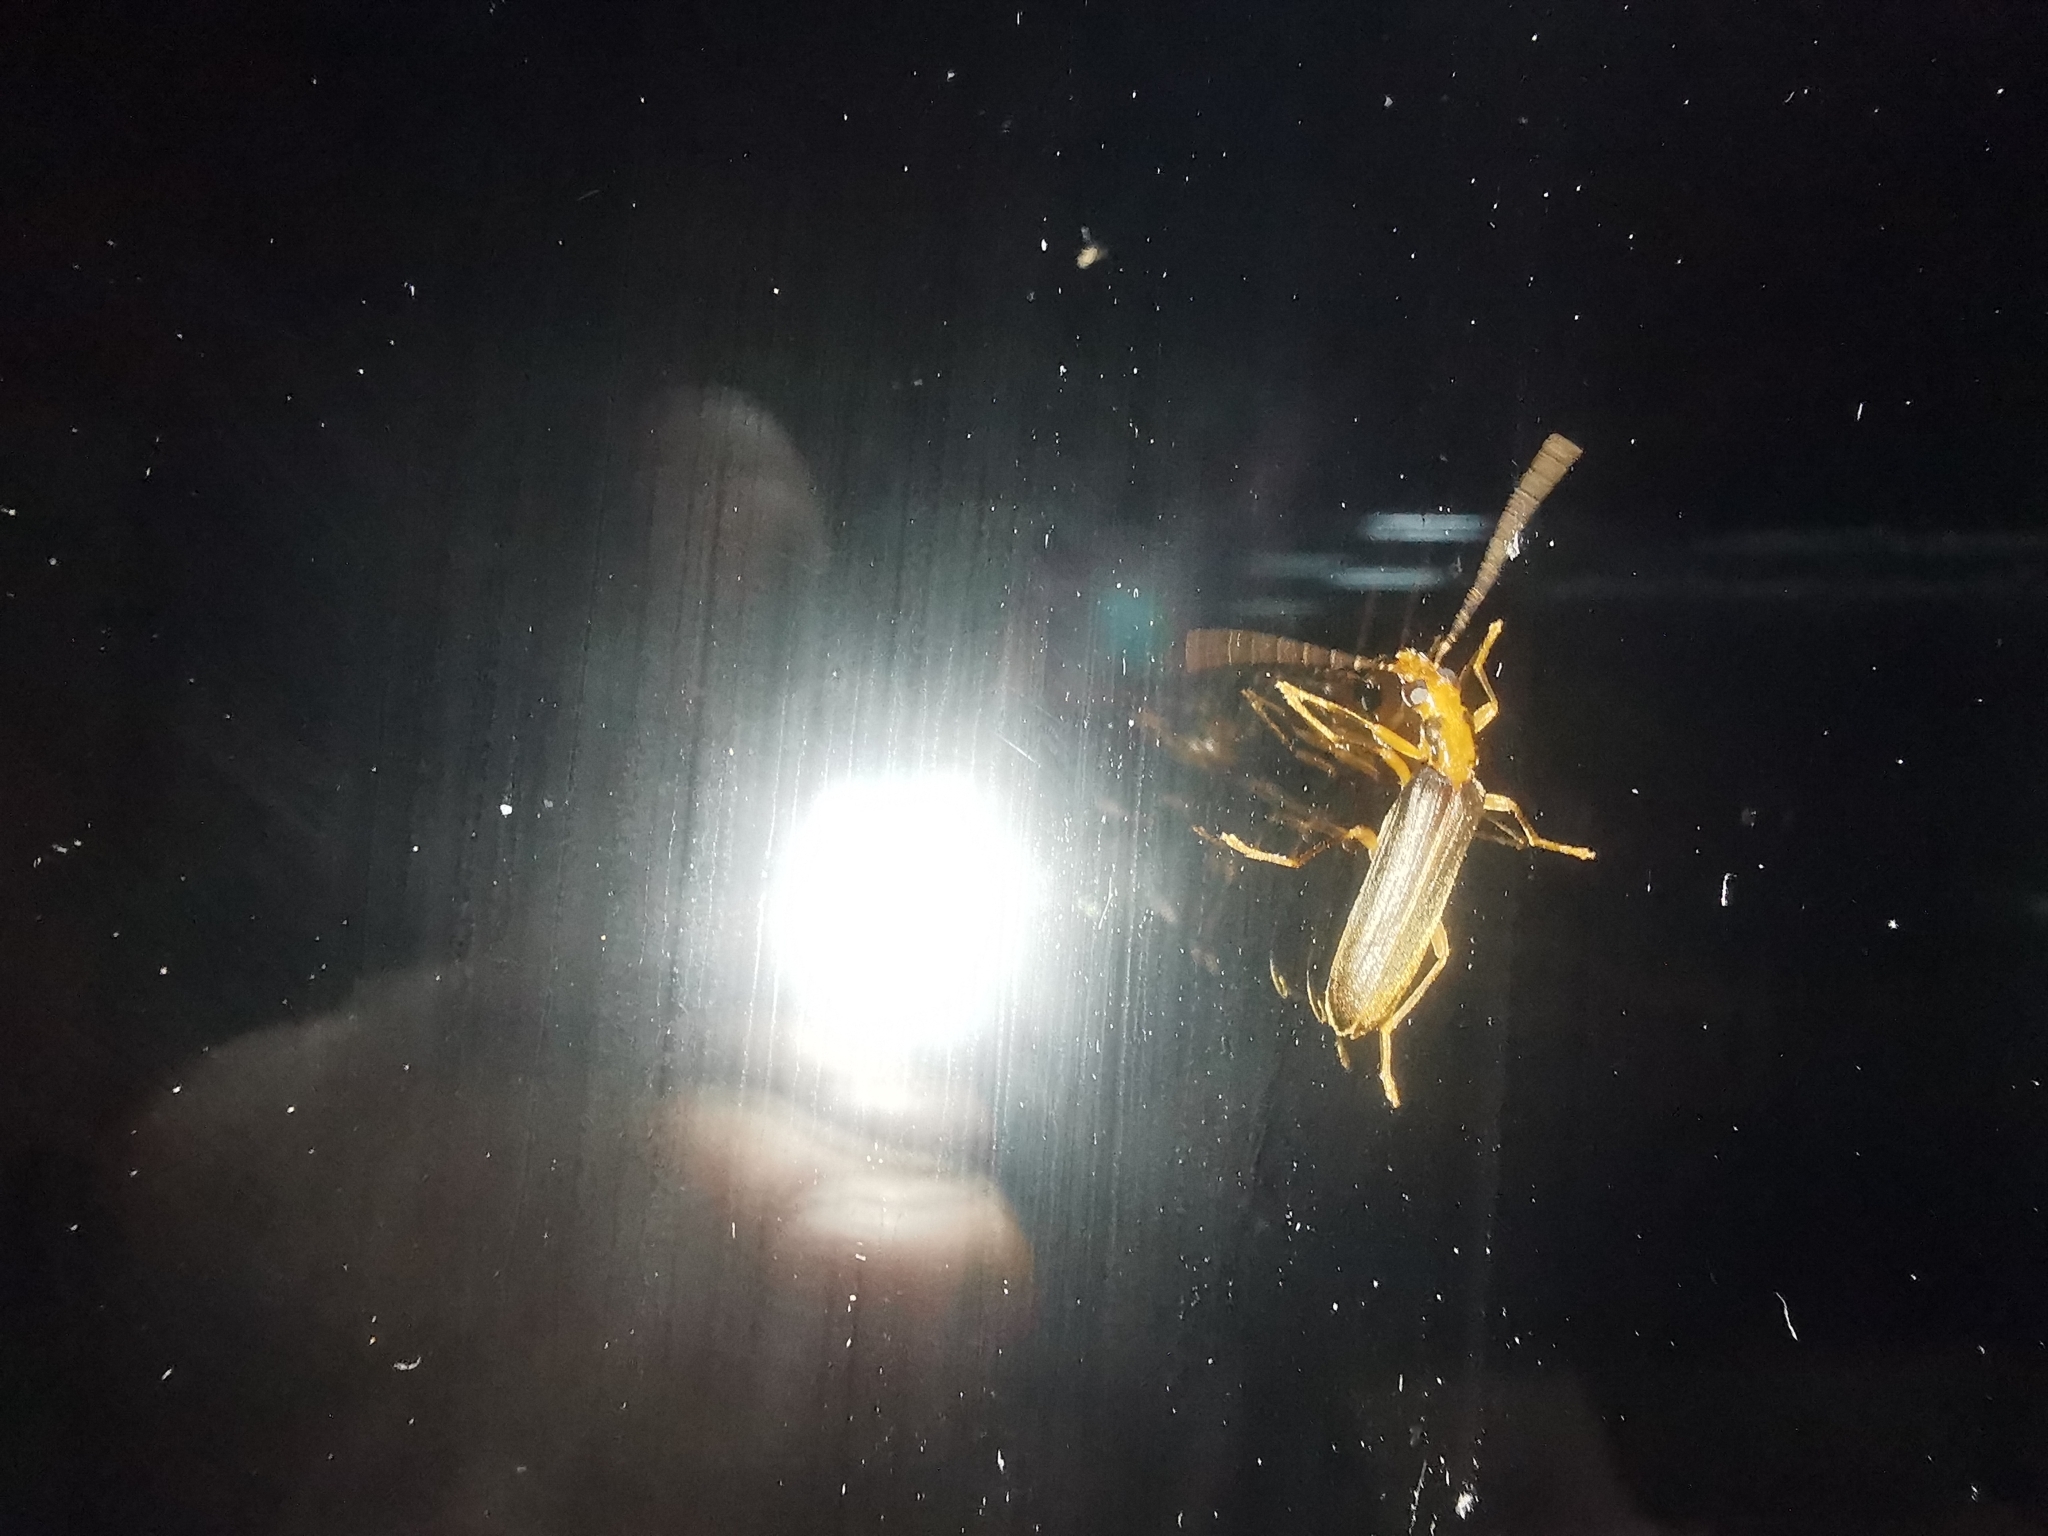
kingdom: Animalia
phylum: Arthropoda
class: Insecta
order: Coleoptera
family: Oedemeridae
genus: Nacerdes
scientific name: Nacerdes carniolica
